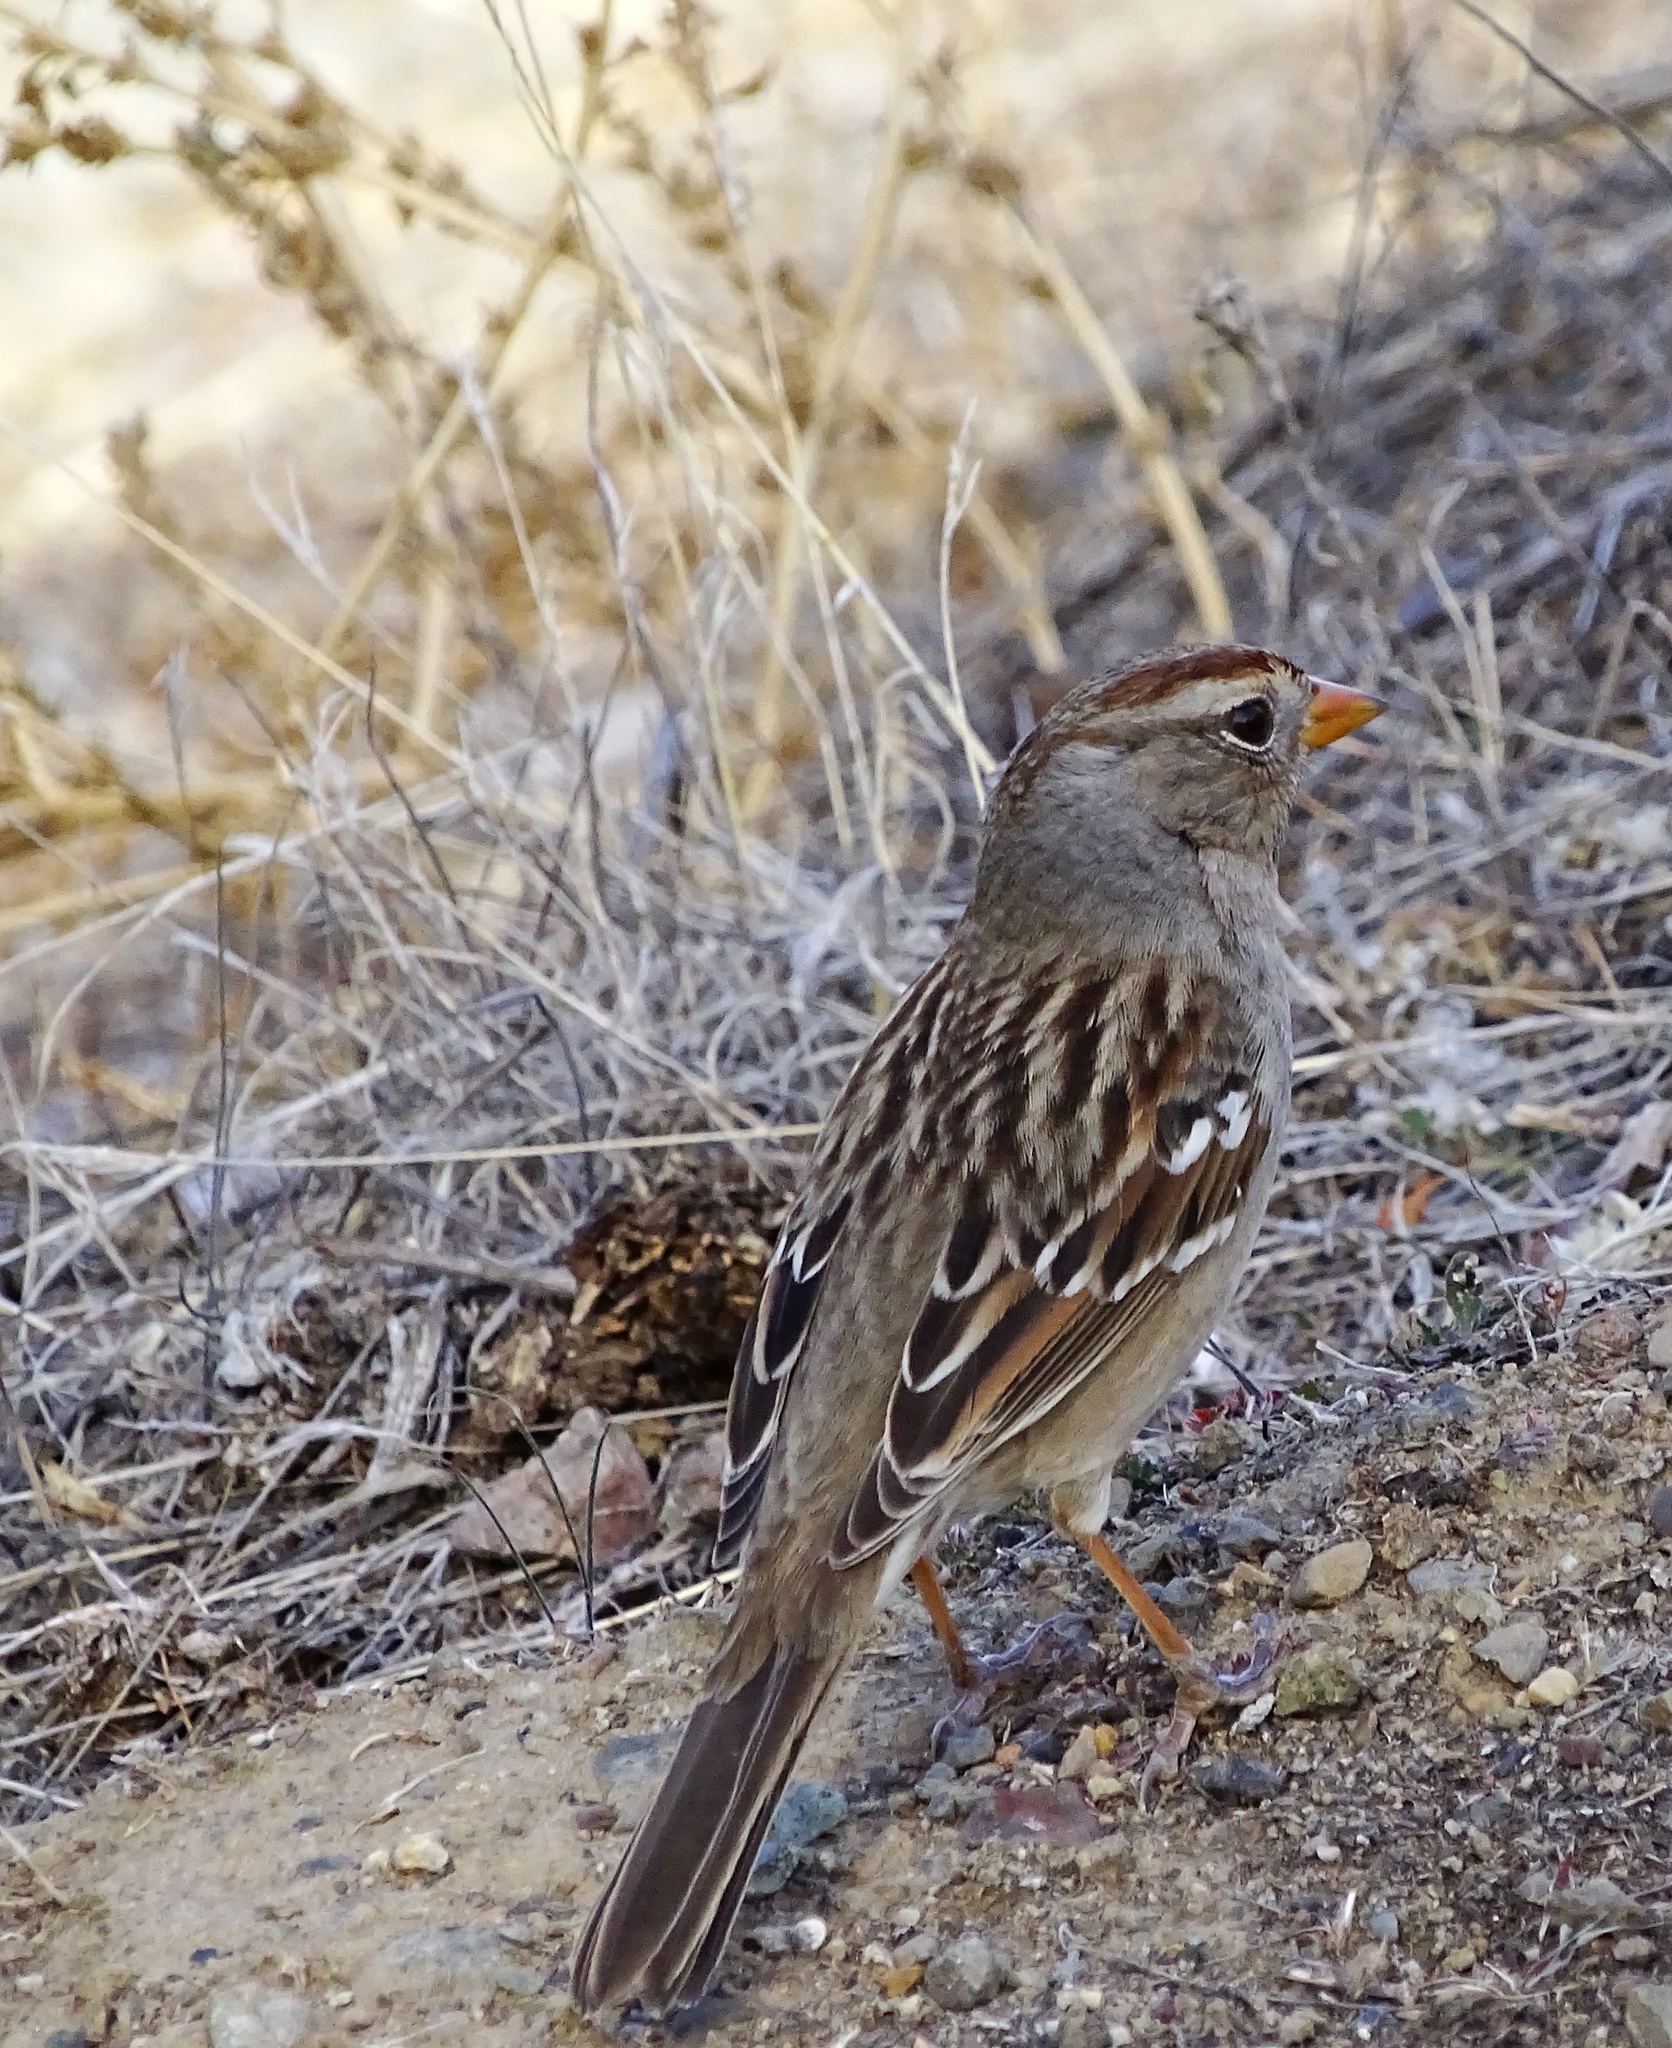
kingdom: Animalia
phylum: Chordata
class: Aves
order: Passeriformes
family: Passerellidae
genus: Zonotrichia
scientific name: Zonotrichia leucophrys
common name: White-crowned sparrow
